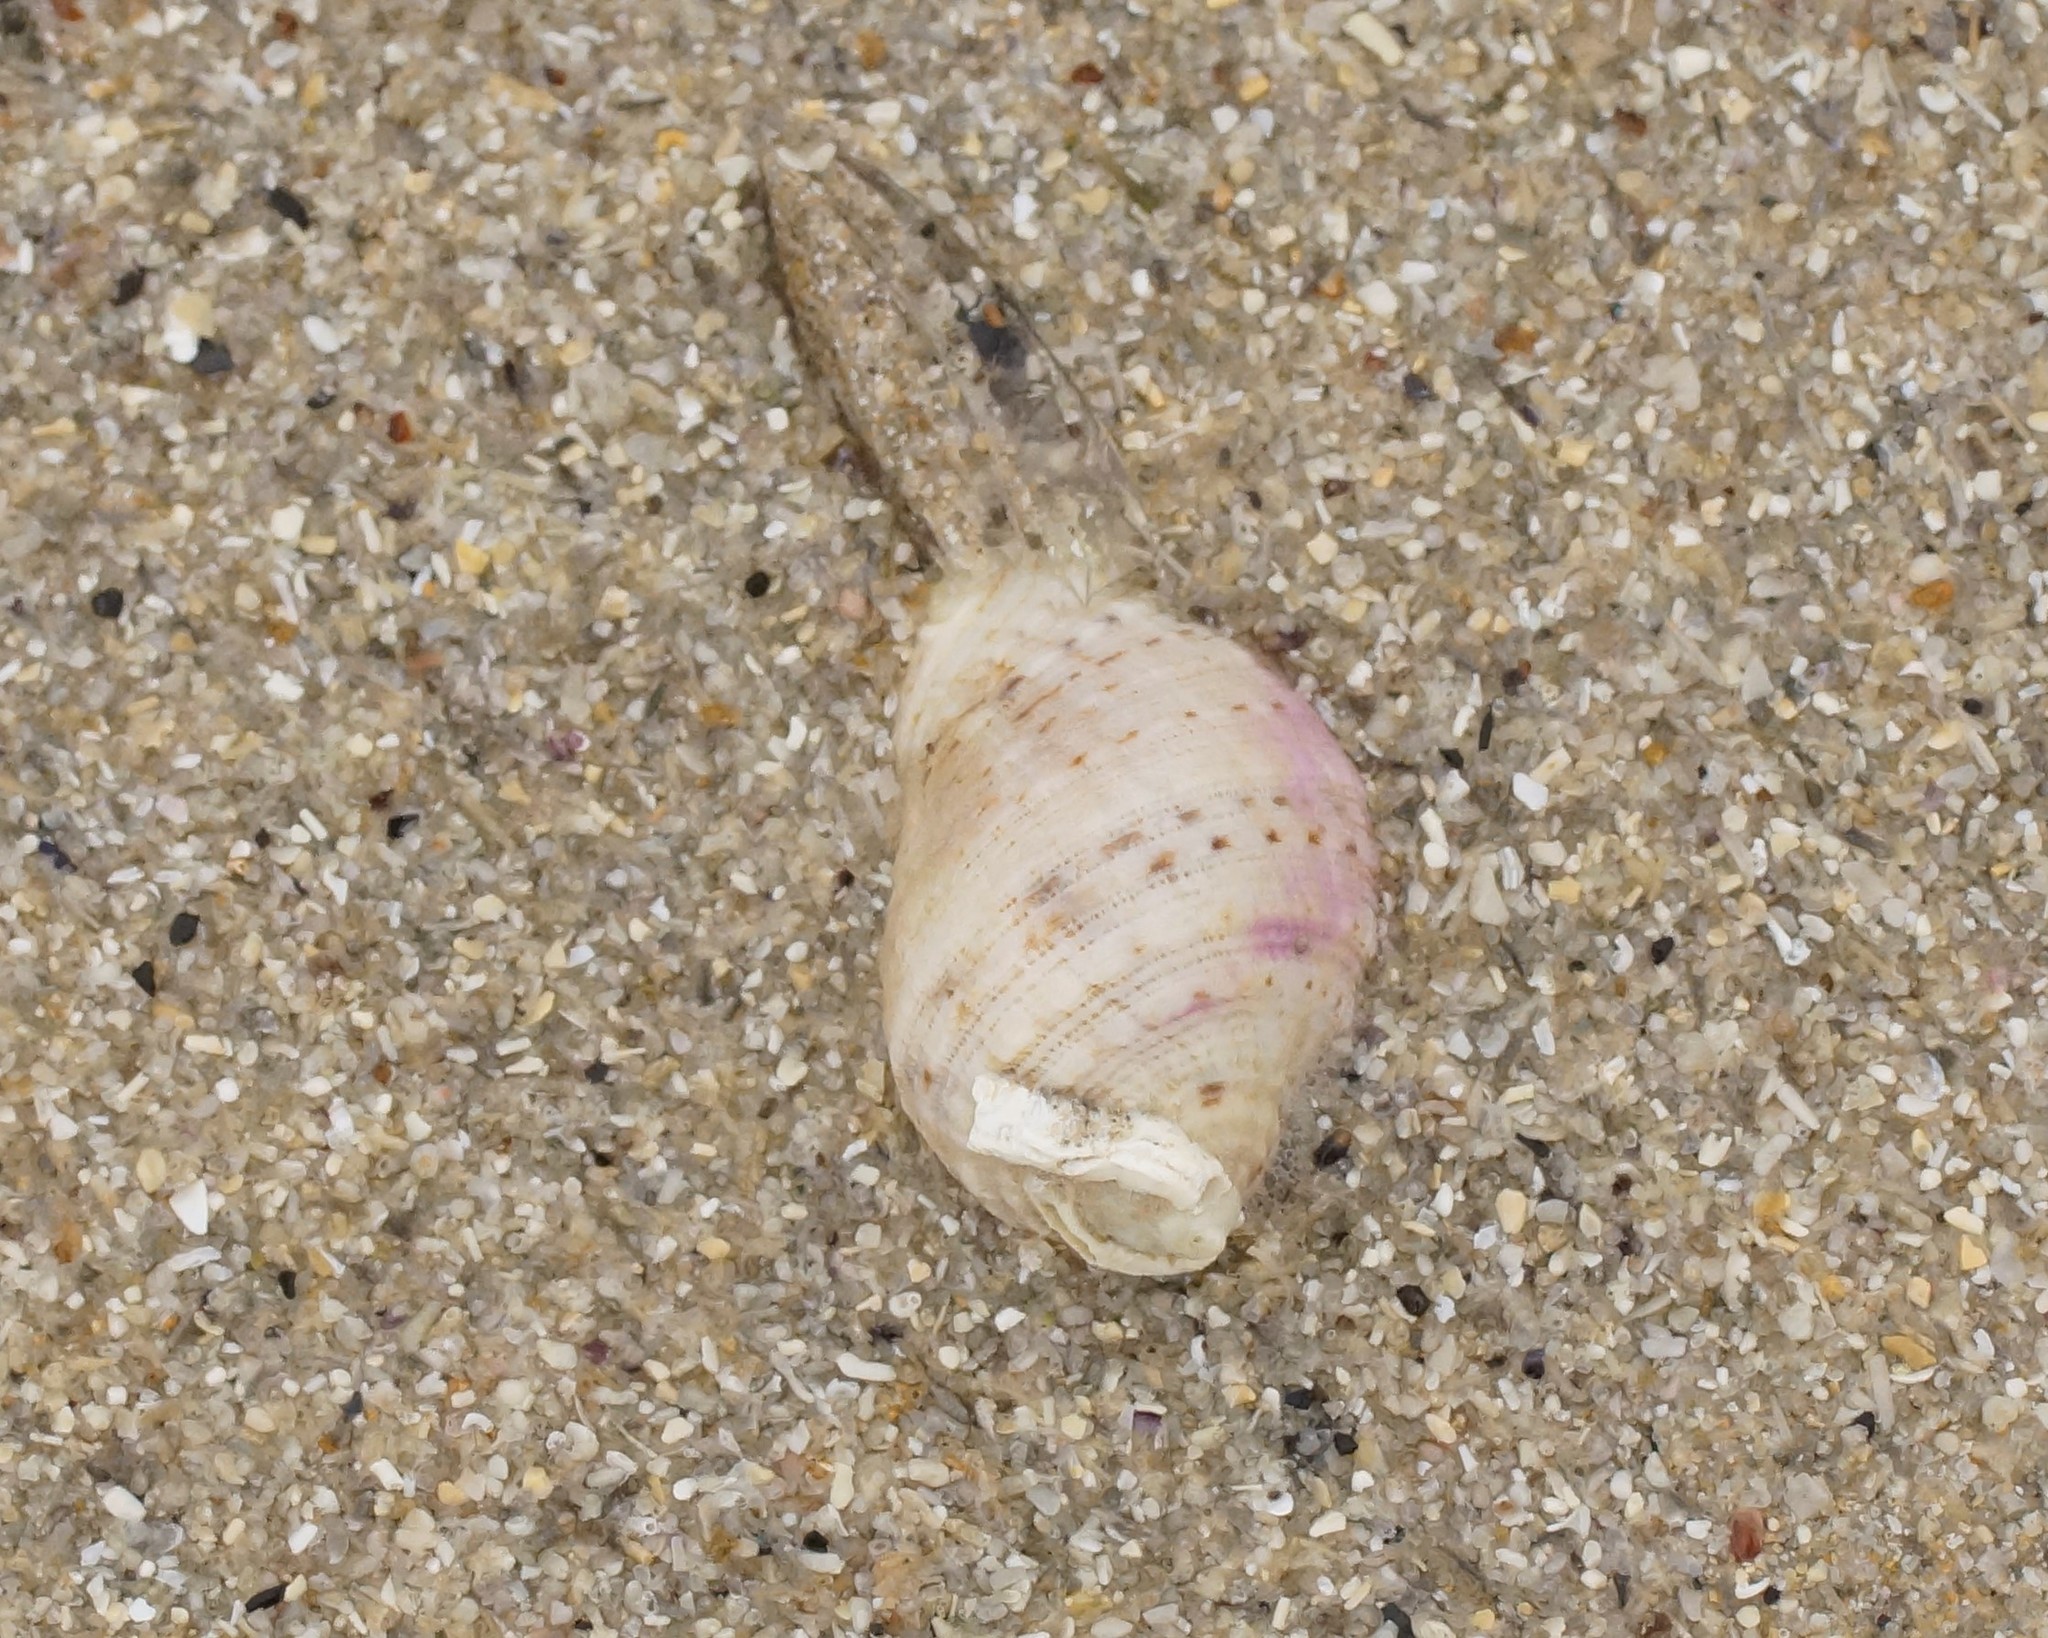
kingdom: Animalia
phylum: Mollusca
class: Gastropoda
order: Neogastropoda
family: Muricidae
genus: Dicathais
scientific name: Dicathais orbita
